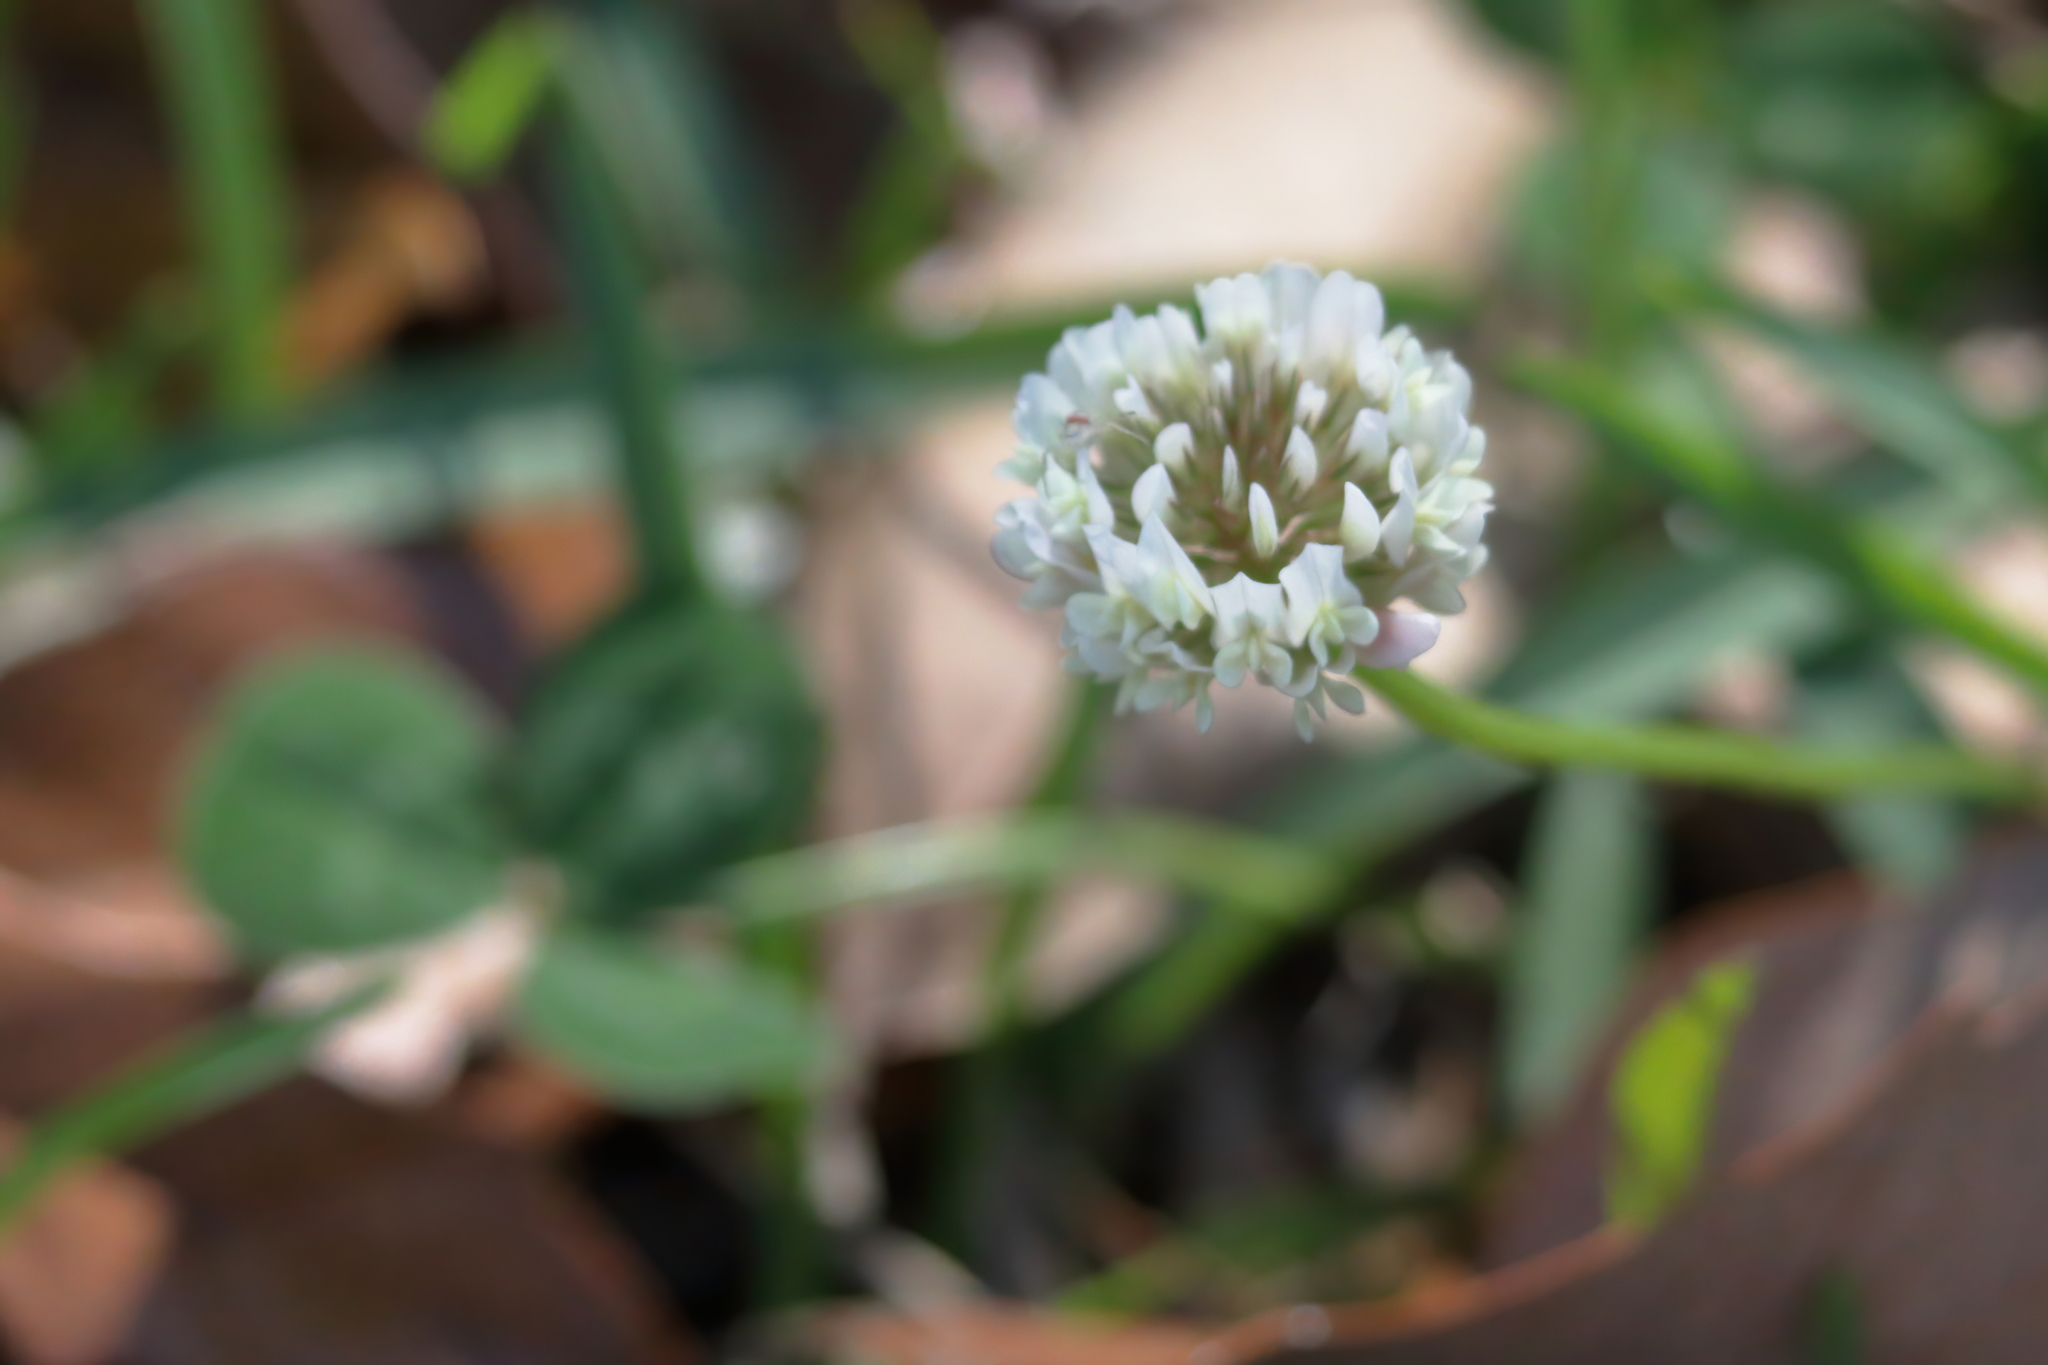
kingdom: Plantae
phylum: Tracheophyta
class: Magnoliopsida
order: Fabales
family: Fabaceae
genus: Trifolium
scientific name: Trifolium repens
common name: White clover
